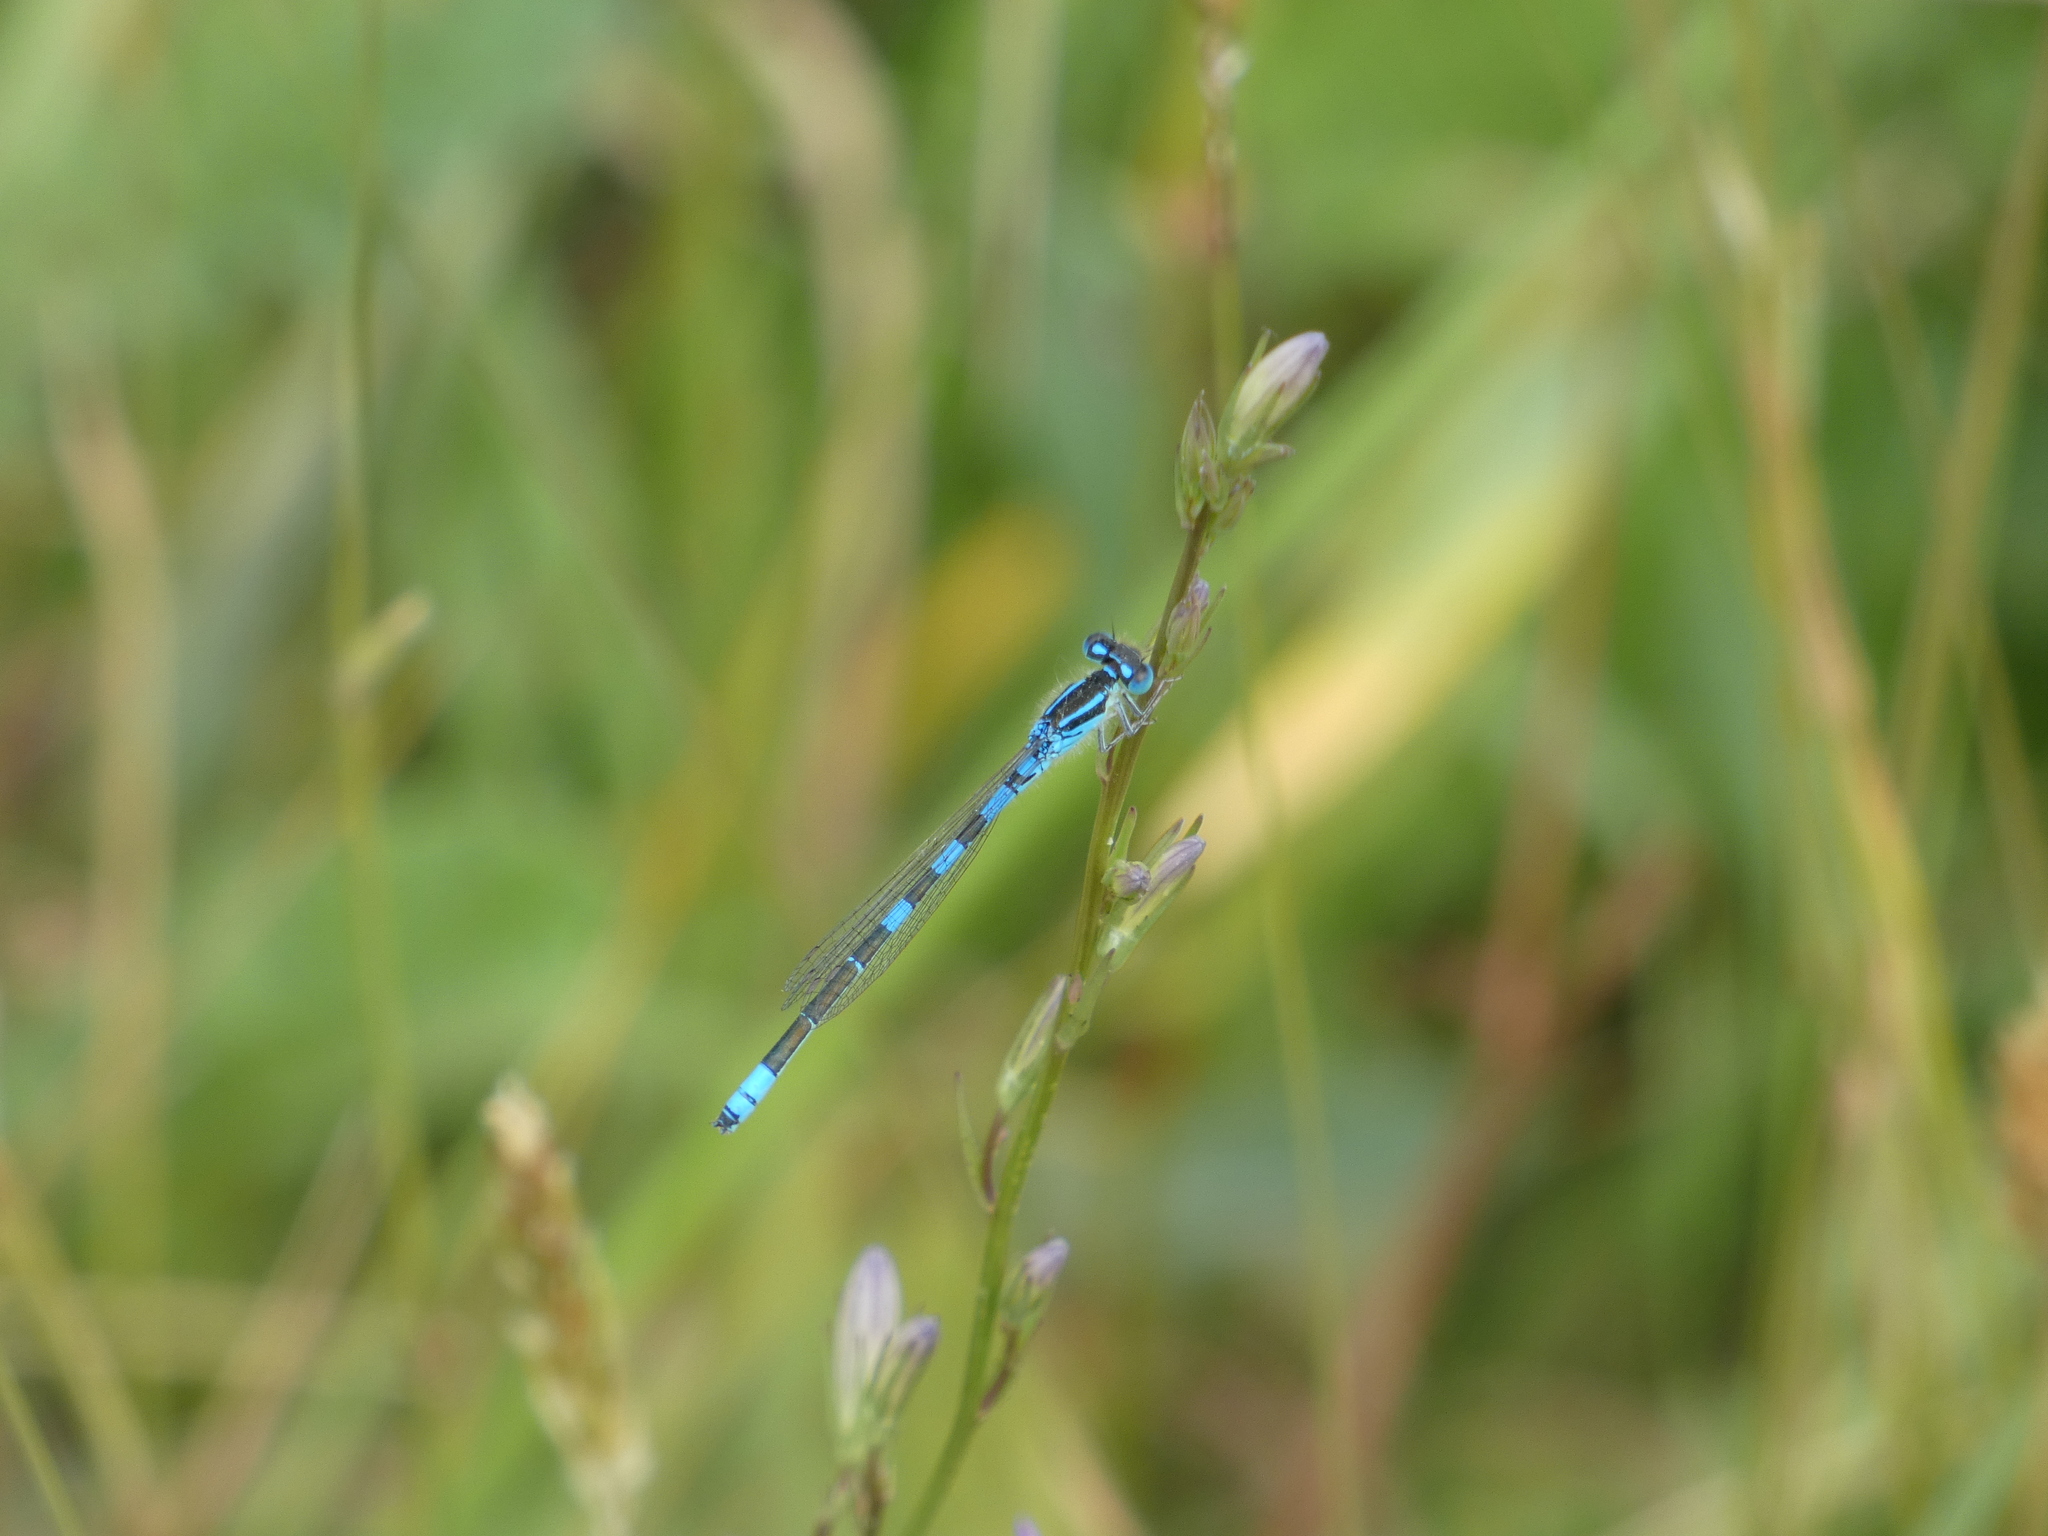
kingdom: Animalia
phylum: Arthropoda
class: Insecta
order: Odonata
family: Coenagrionidae
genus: Coenagrion
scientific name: Coenagrion scitulum
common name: Dainty bluet
